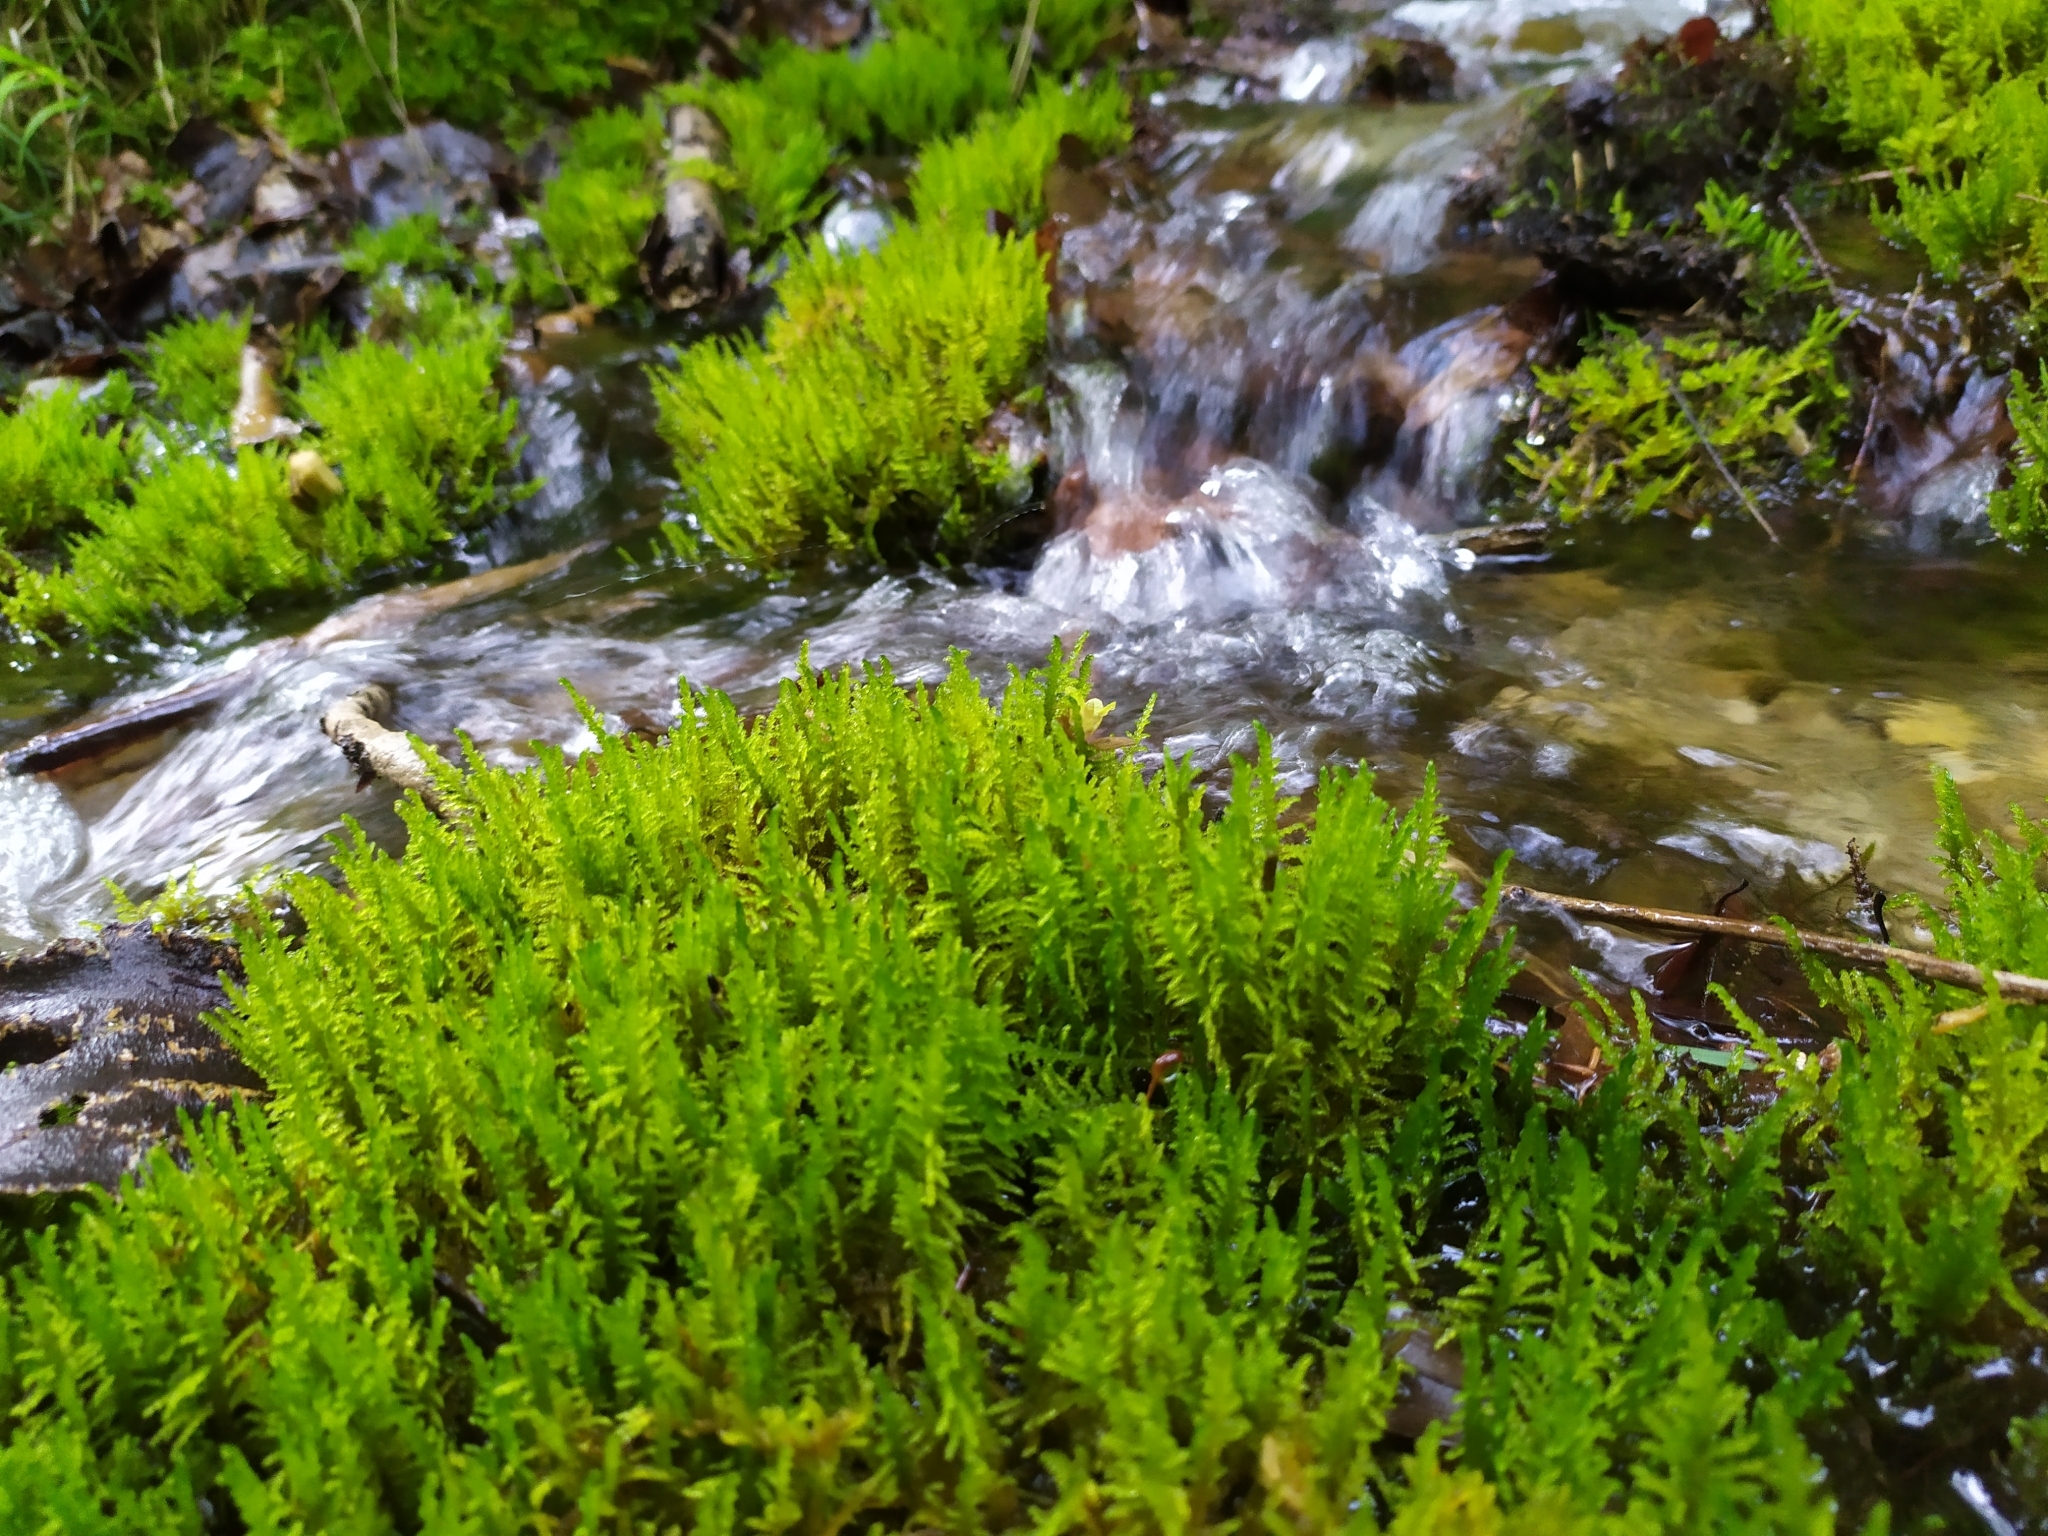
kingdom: Plantae
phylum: Bryophyta
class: Bryopsida
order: Hypnales
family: Amblystegiaceae
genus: Palustriella
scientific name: Palustriella commutata
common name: Curled hook-moss
